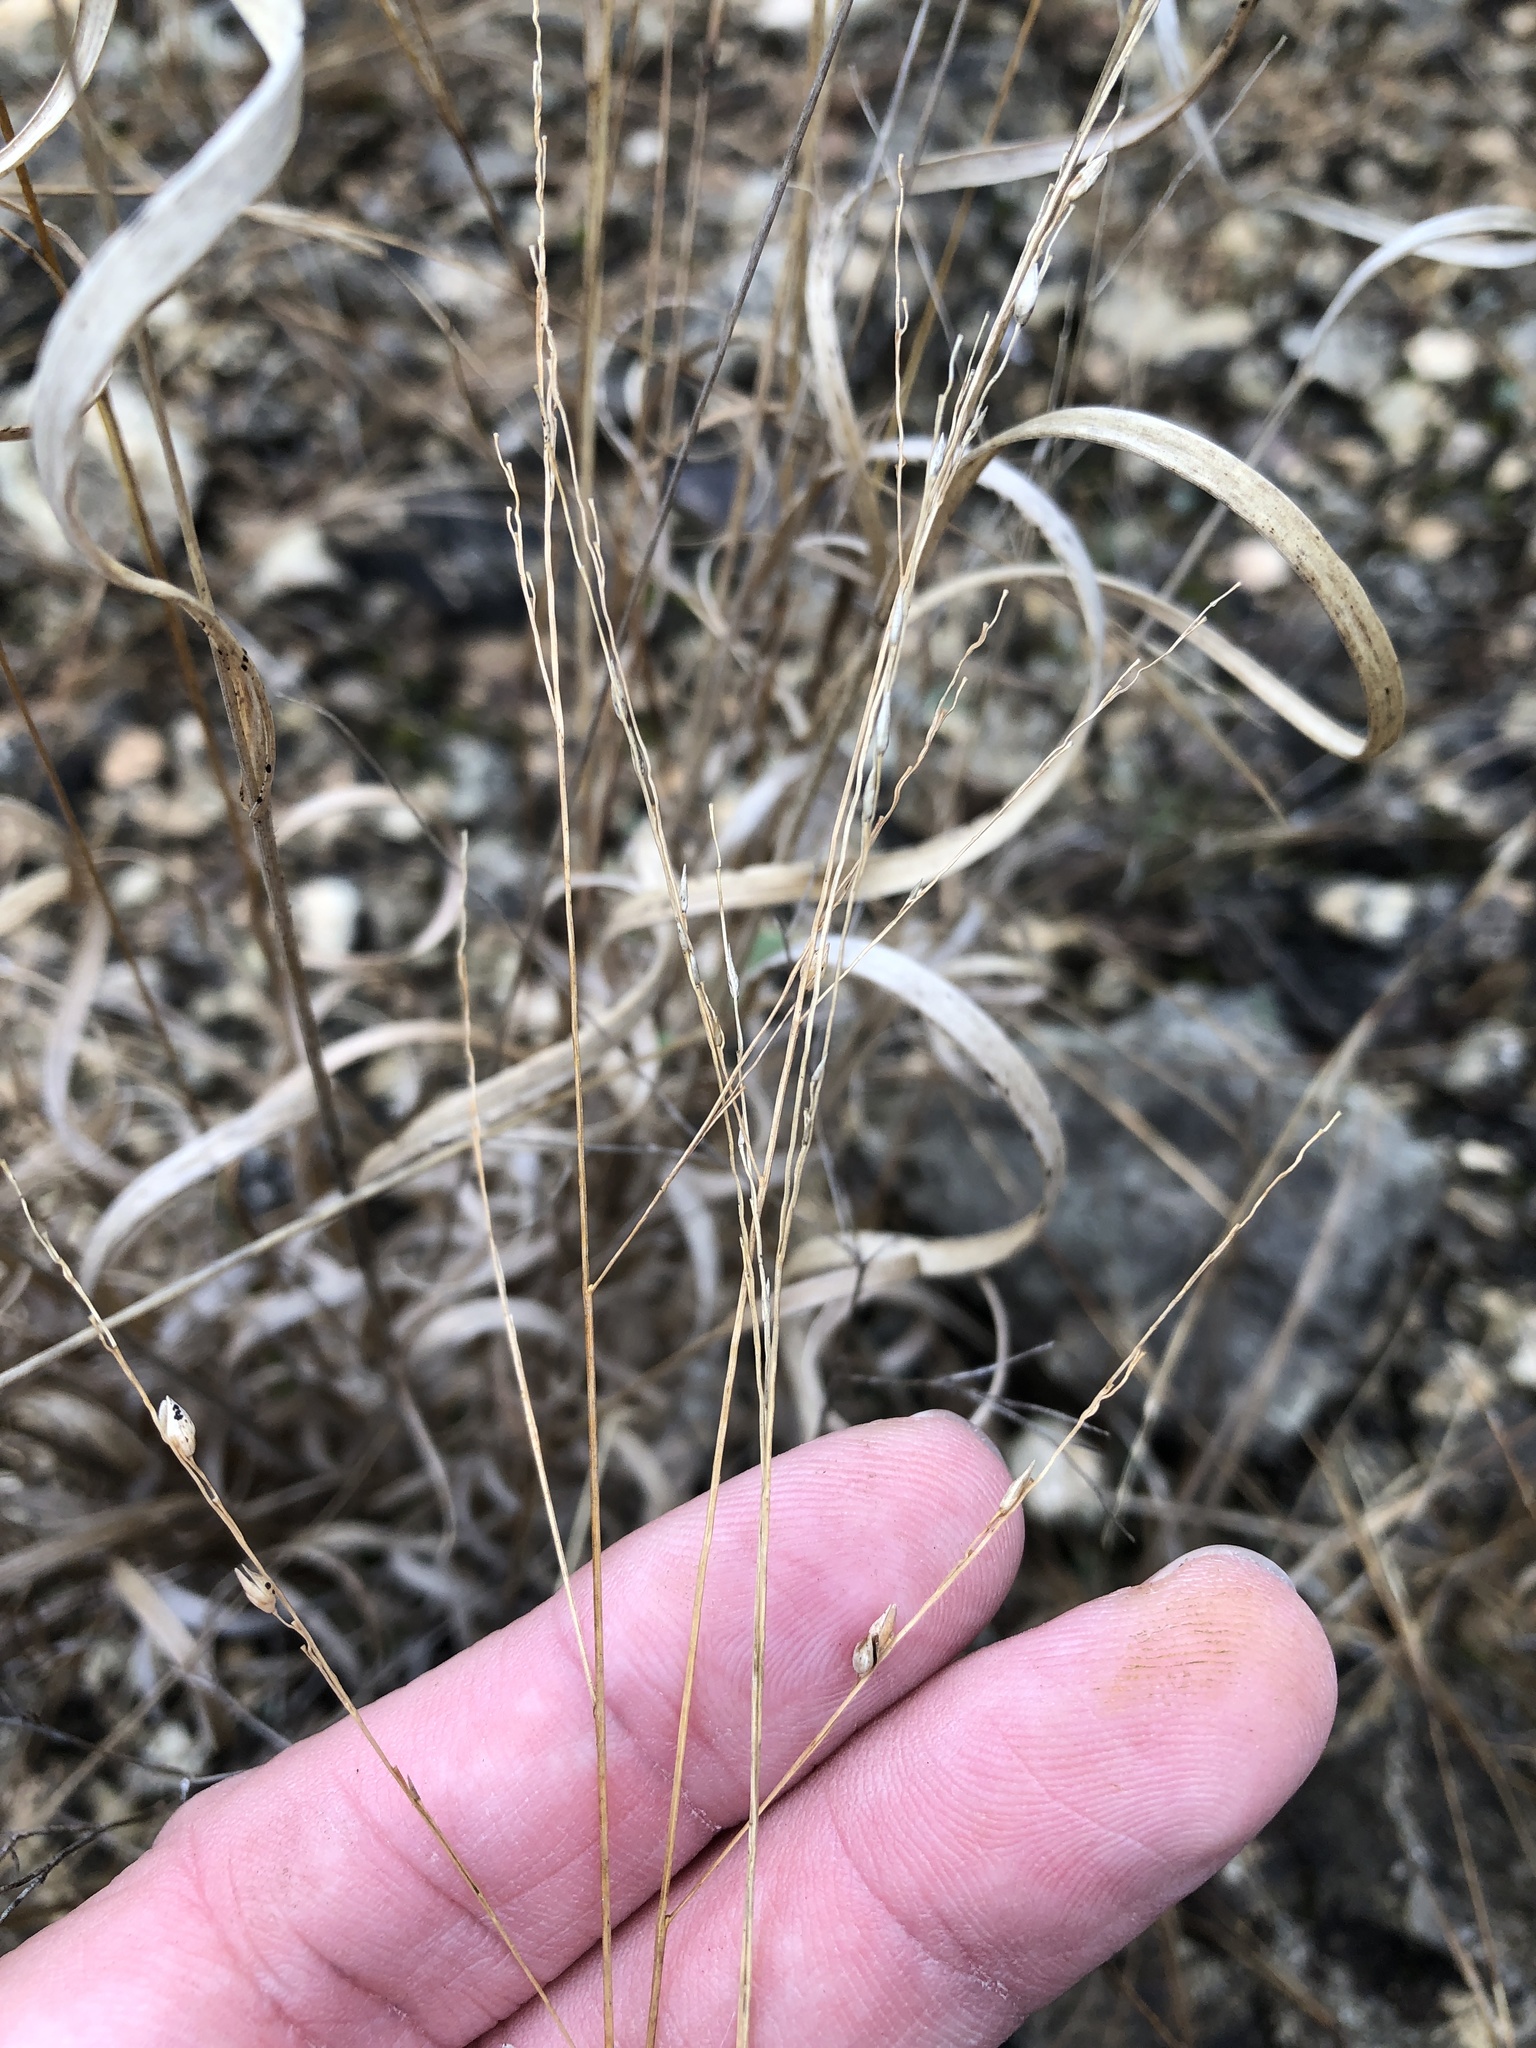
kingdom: Plantae
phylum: Tracheophyta
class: Liliopsida
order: Poales
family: Poaceae
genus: Panicum
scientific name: Panicum hallii
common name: Hall's witchgrass
